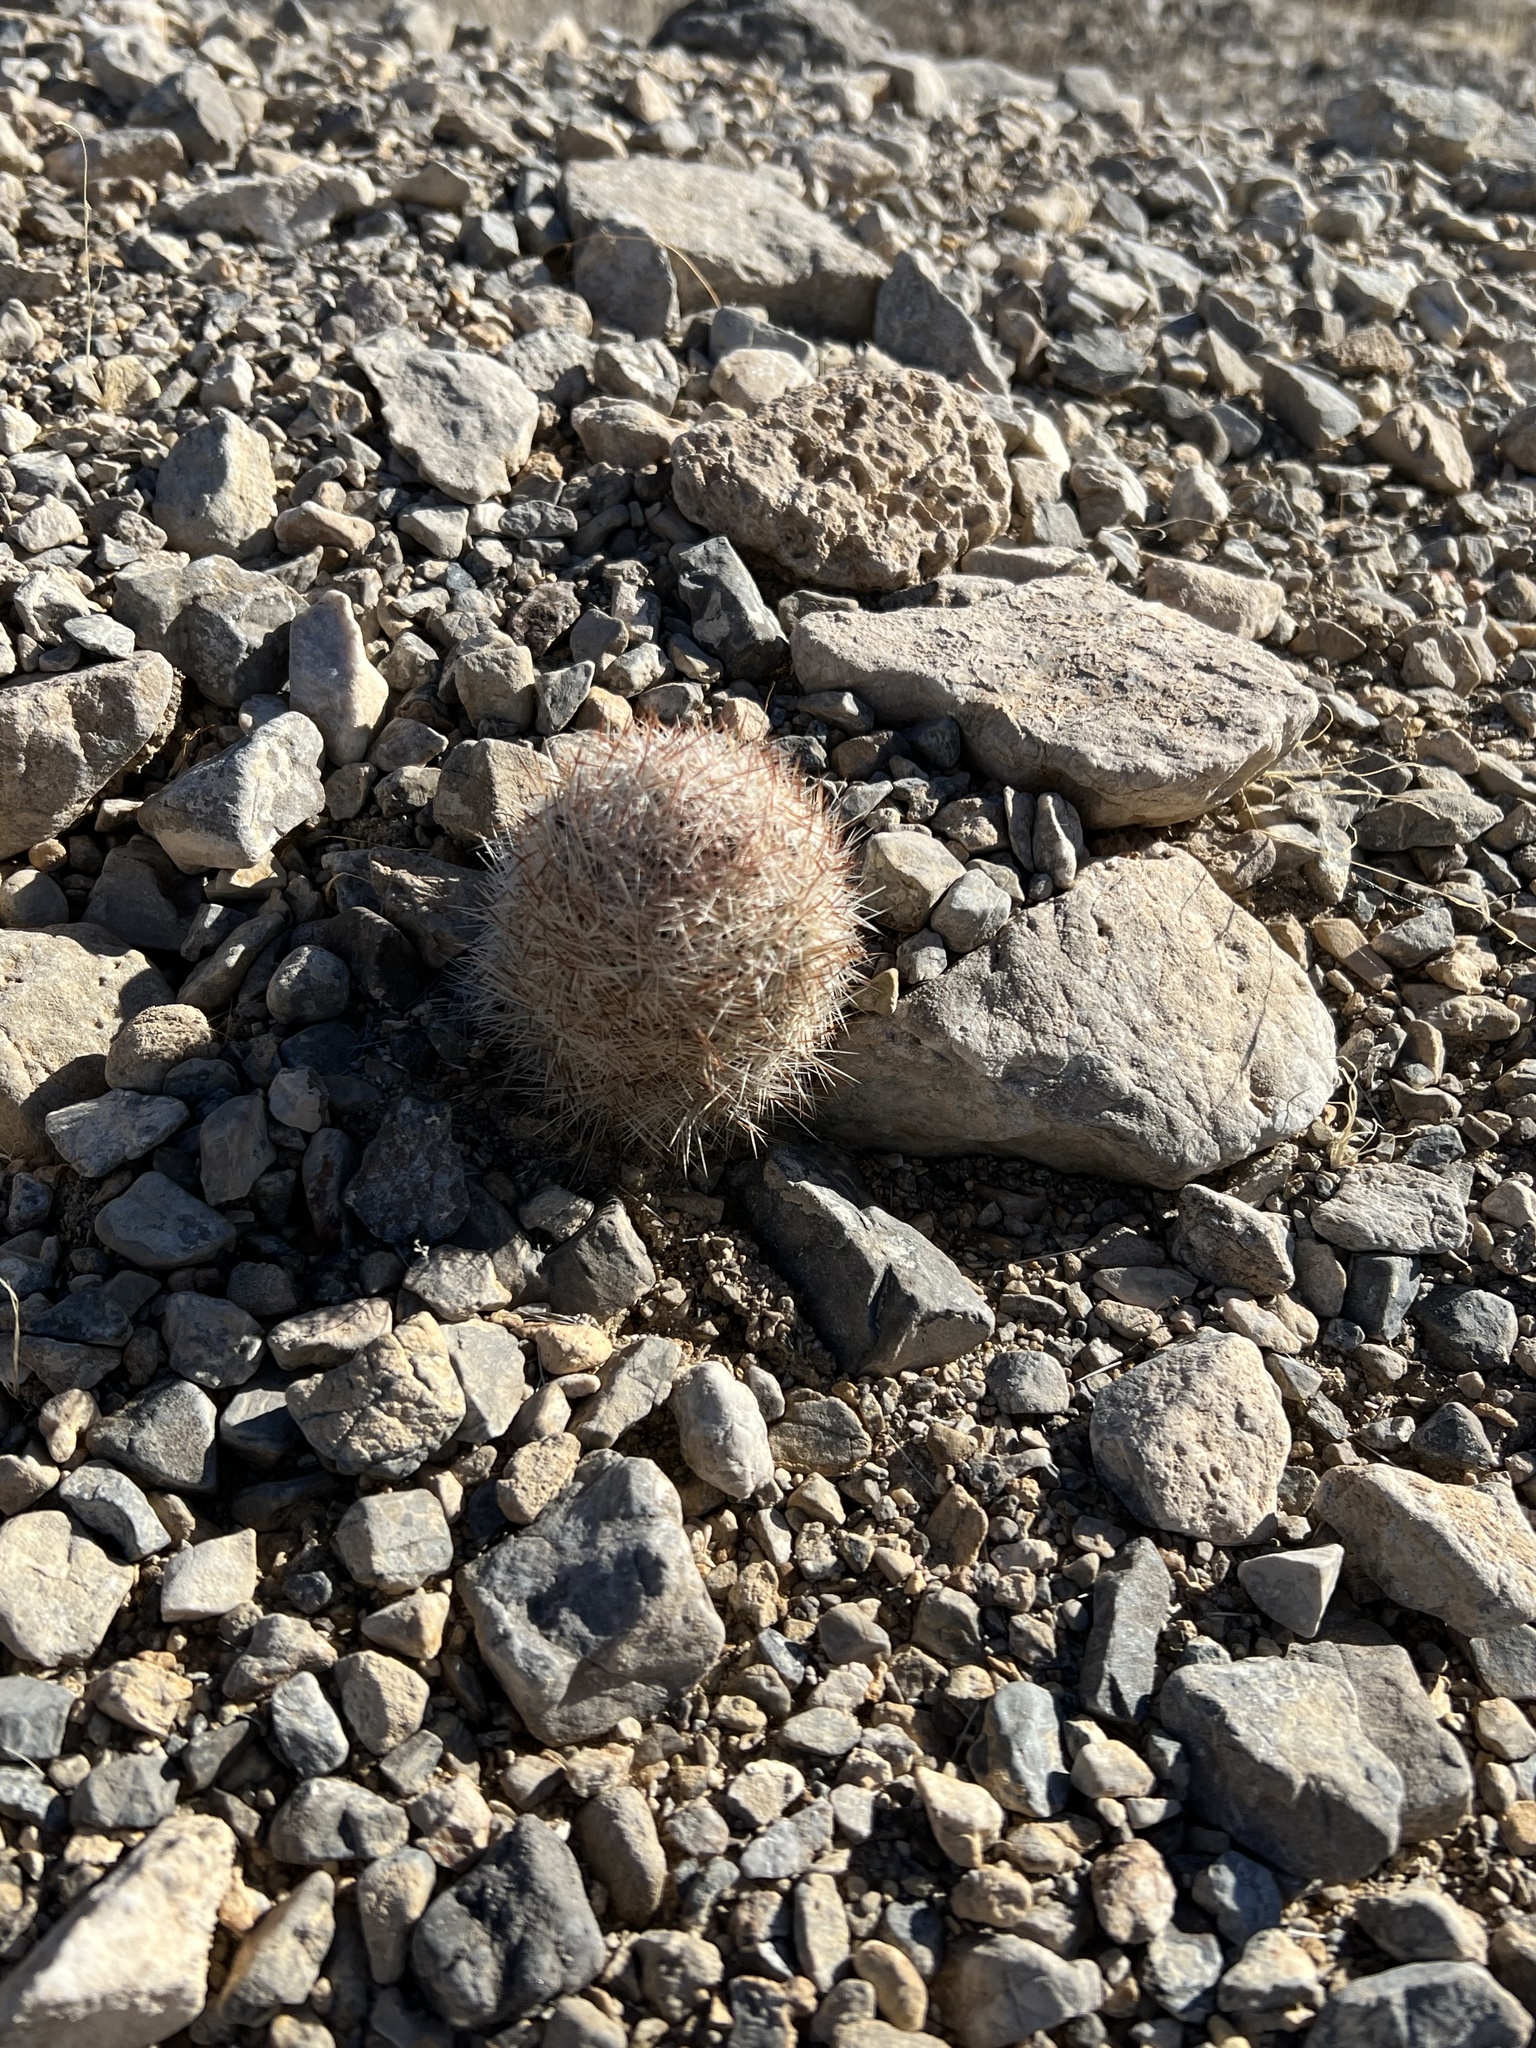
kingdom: Plantae
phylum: Tracheophyta
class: Magnoliopsida
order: Caryophyllales
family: Cactaceae
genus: Pelecyphora
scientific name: Pelecyphora dasyacantha
